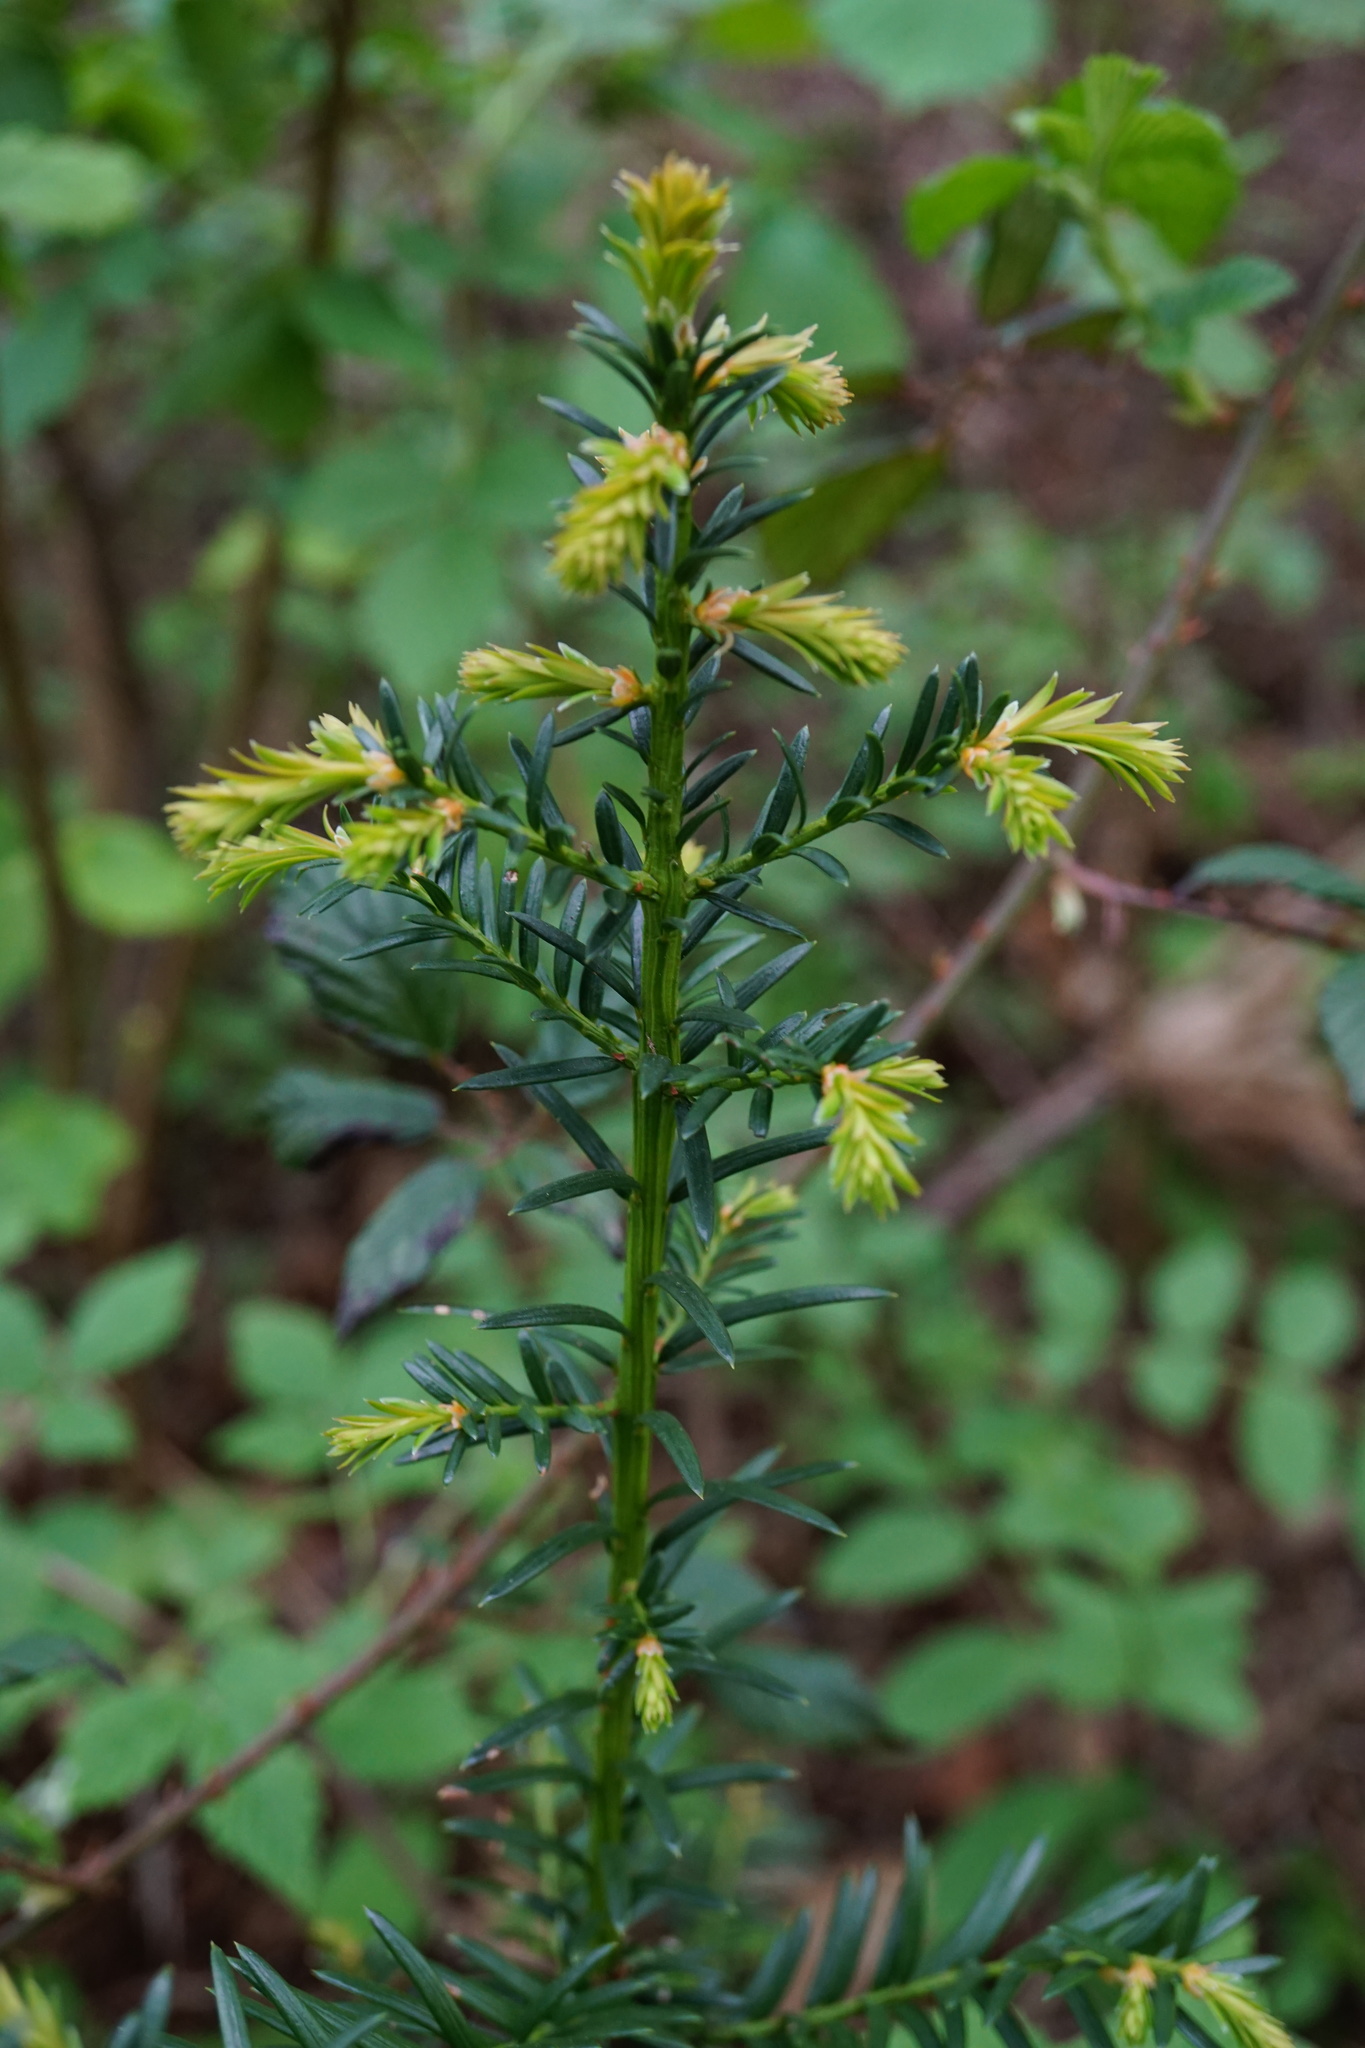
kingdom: Plantae
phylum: Tracheophyta
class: Pinopsida
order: Pinales
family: Taxaceae
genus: Taxus
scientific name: Taxus baccata
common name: Yew
